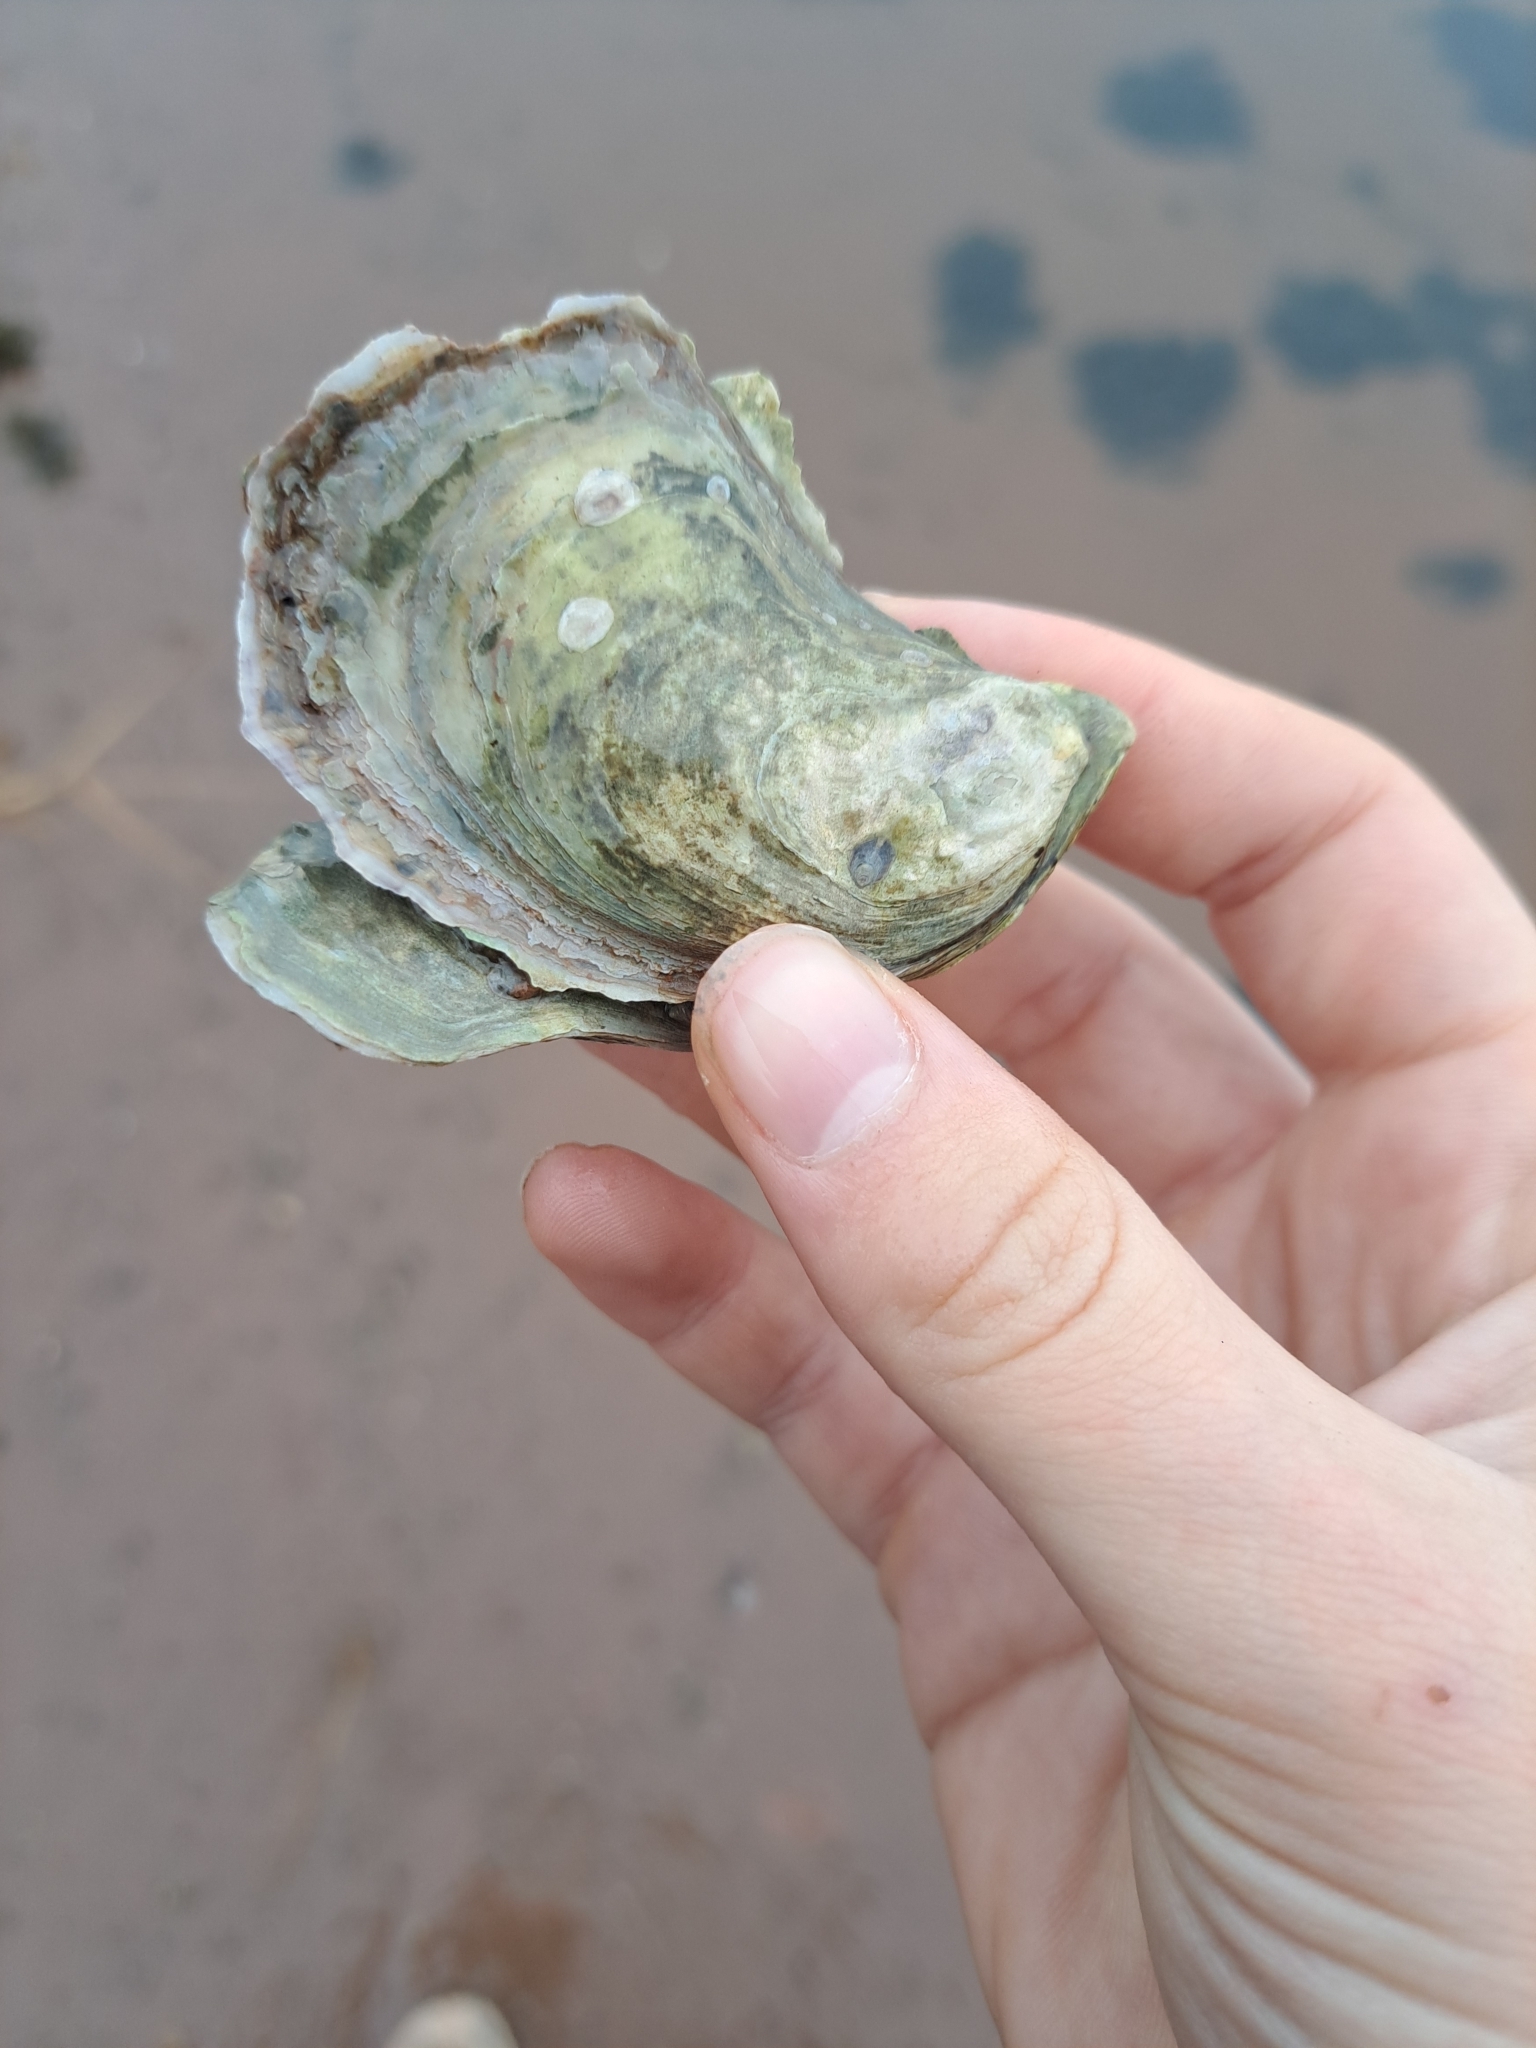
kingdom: Animalia
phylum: Mollusca
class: Bivalvia
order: Ostreida
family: Ostreidae
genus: Crassostrea
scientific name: Crassostrea virginica
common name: American oyster
